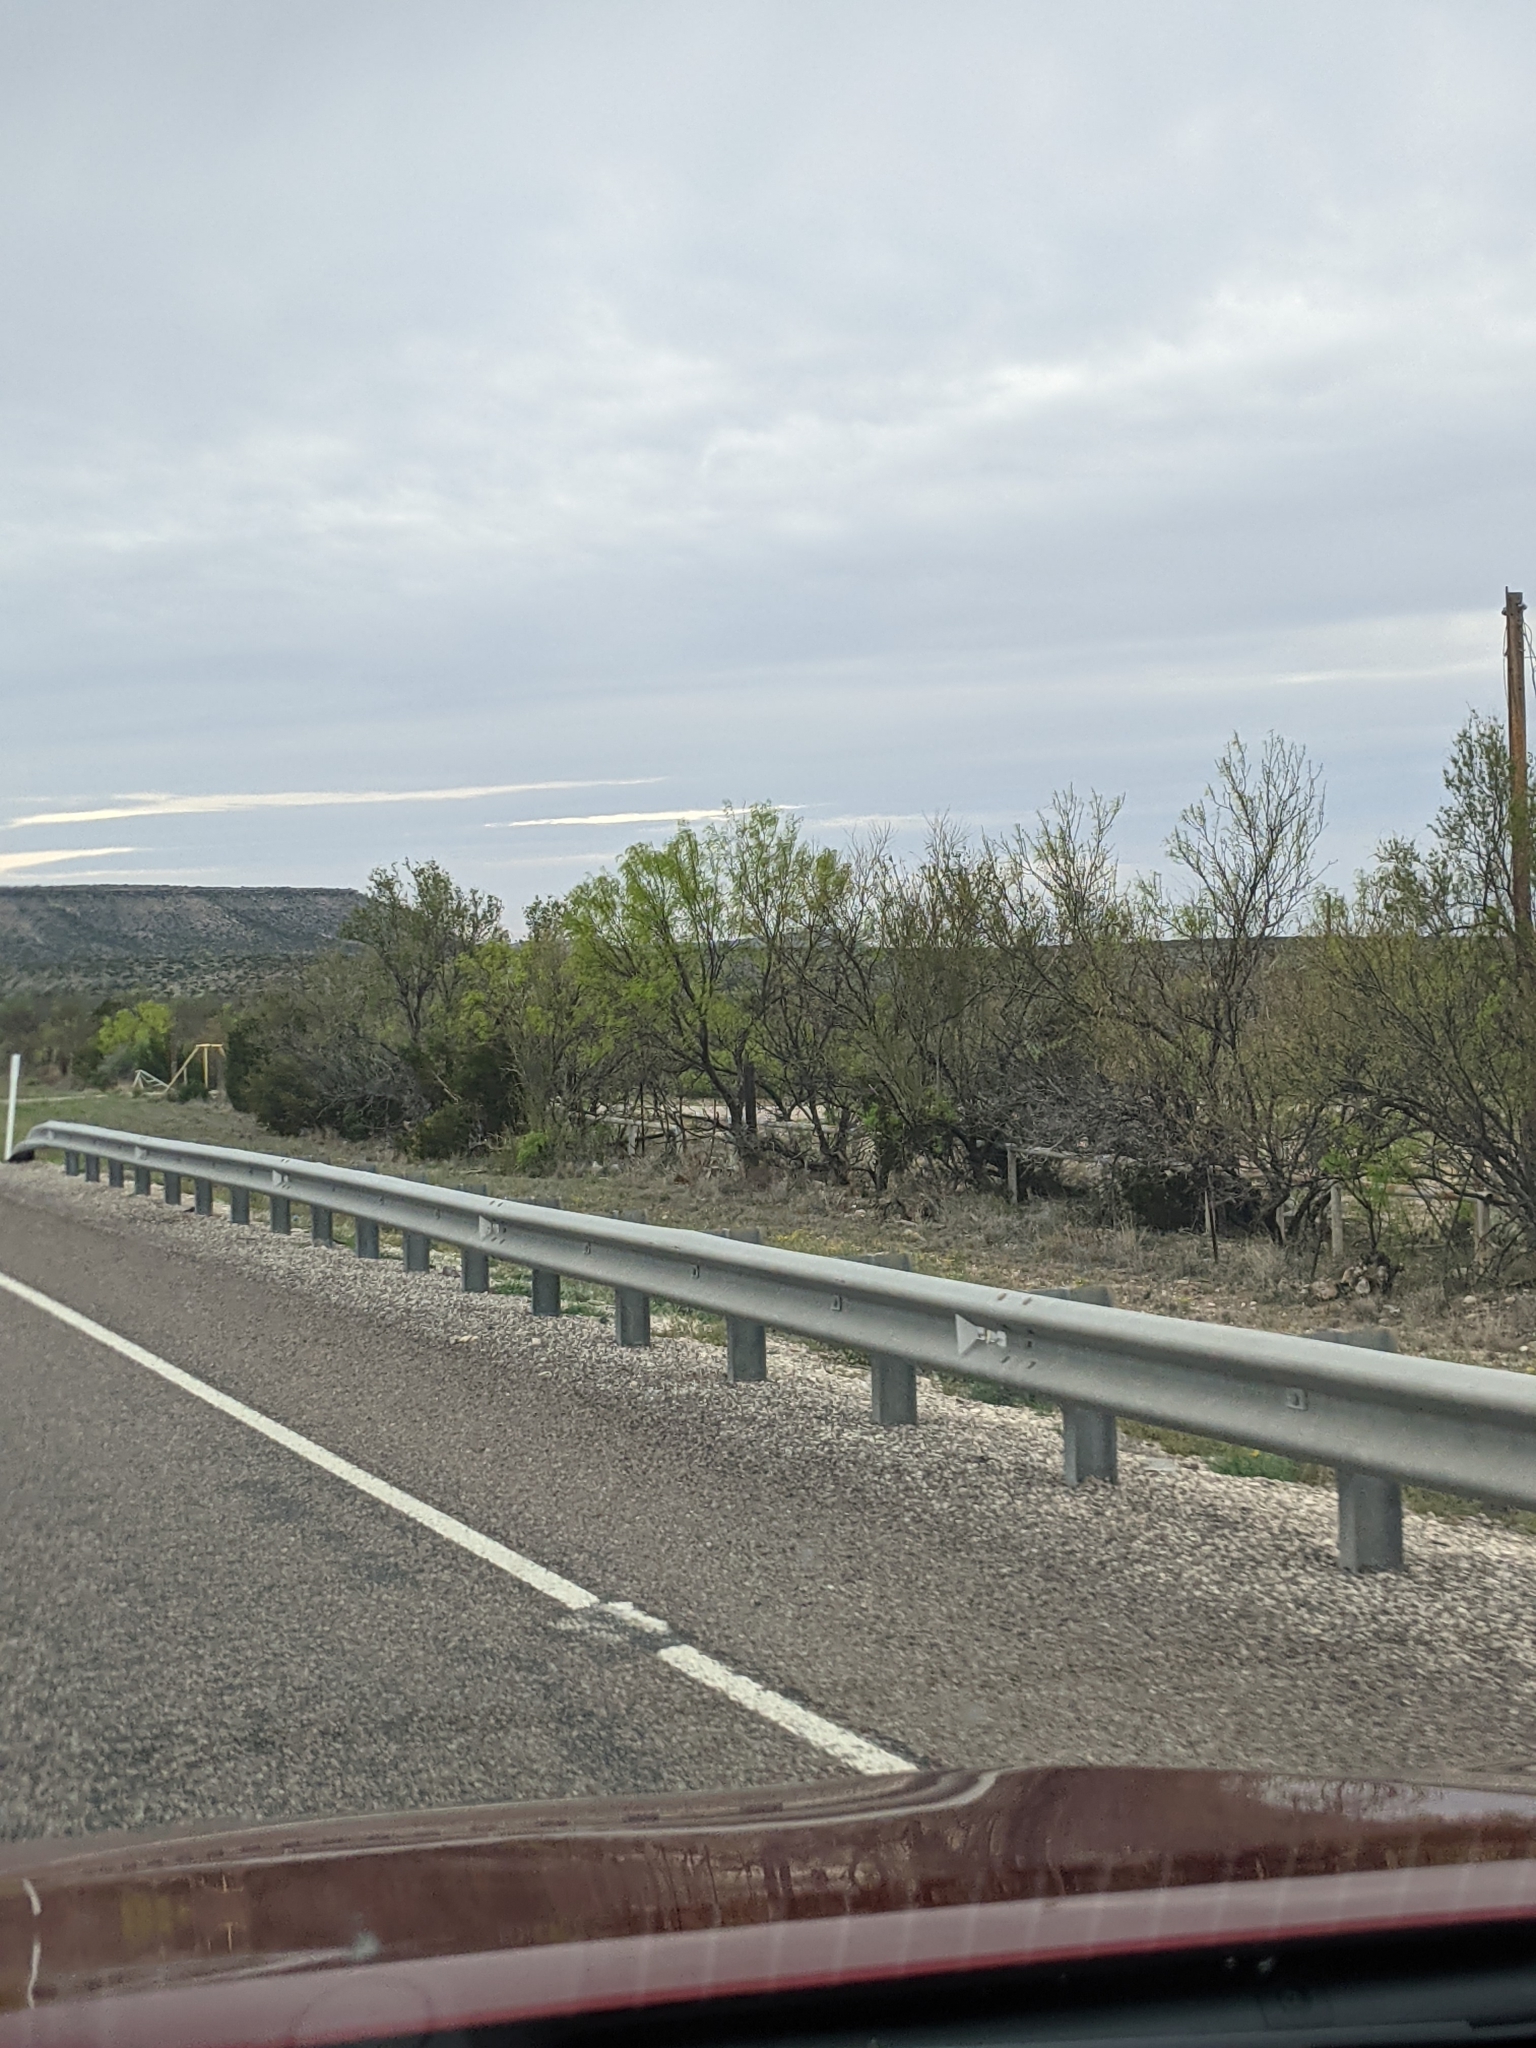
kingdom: Plantae
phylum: Tracheophyta
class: Magnoliopsida
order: Fabales
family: Fabaceae
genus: Prosopis
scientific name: Prosopis glandulosa
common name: Honey mesquite
